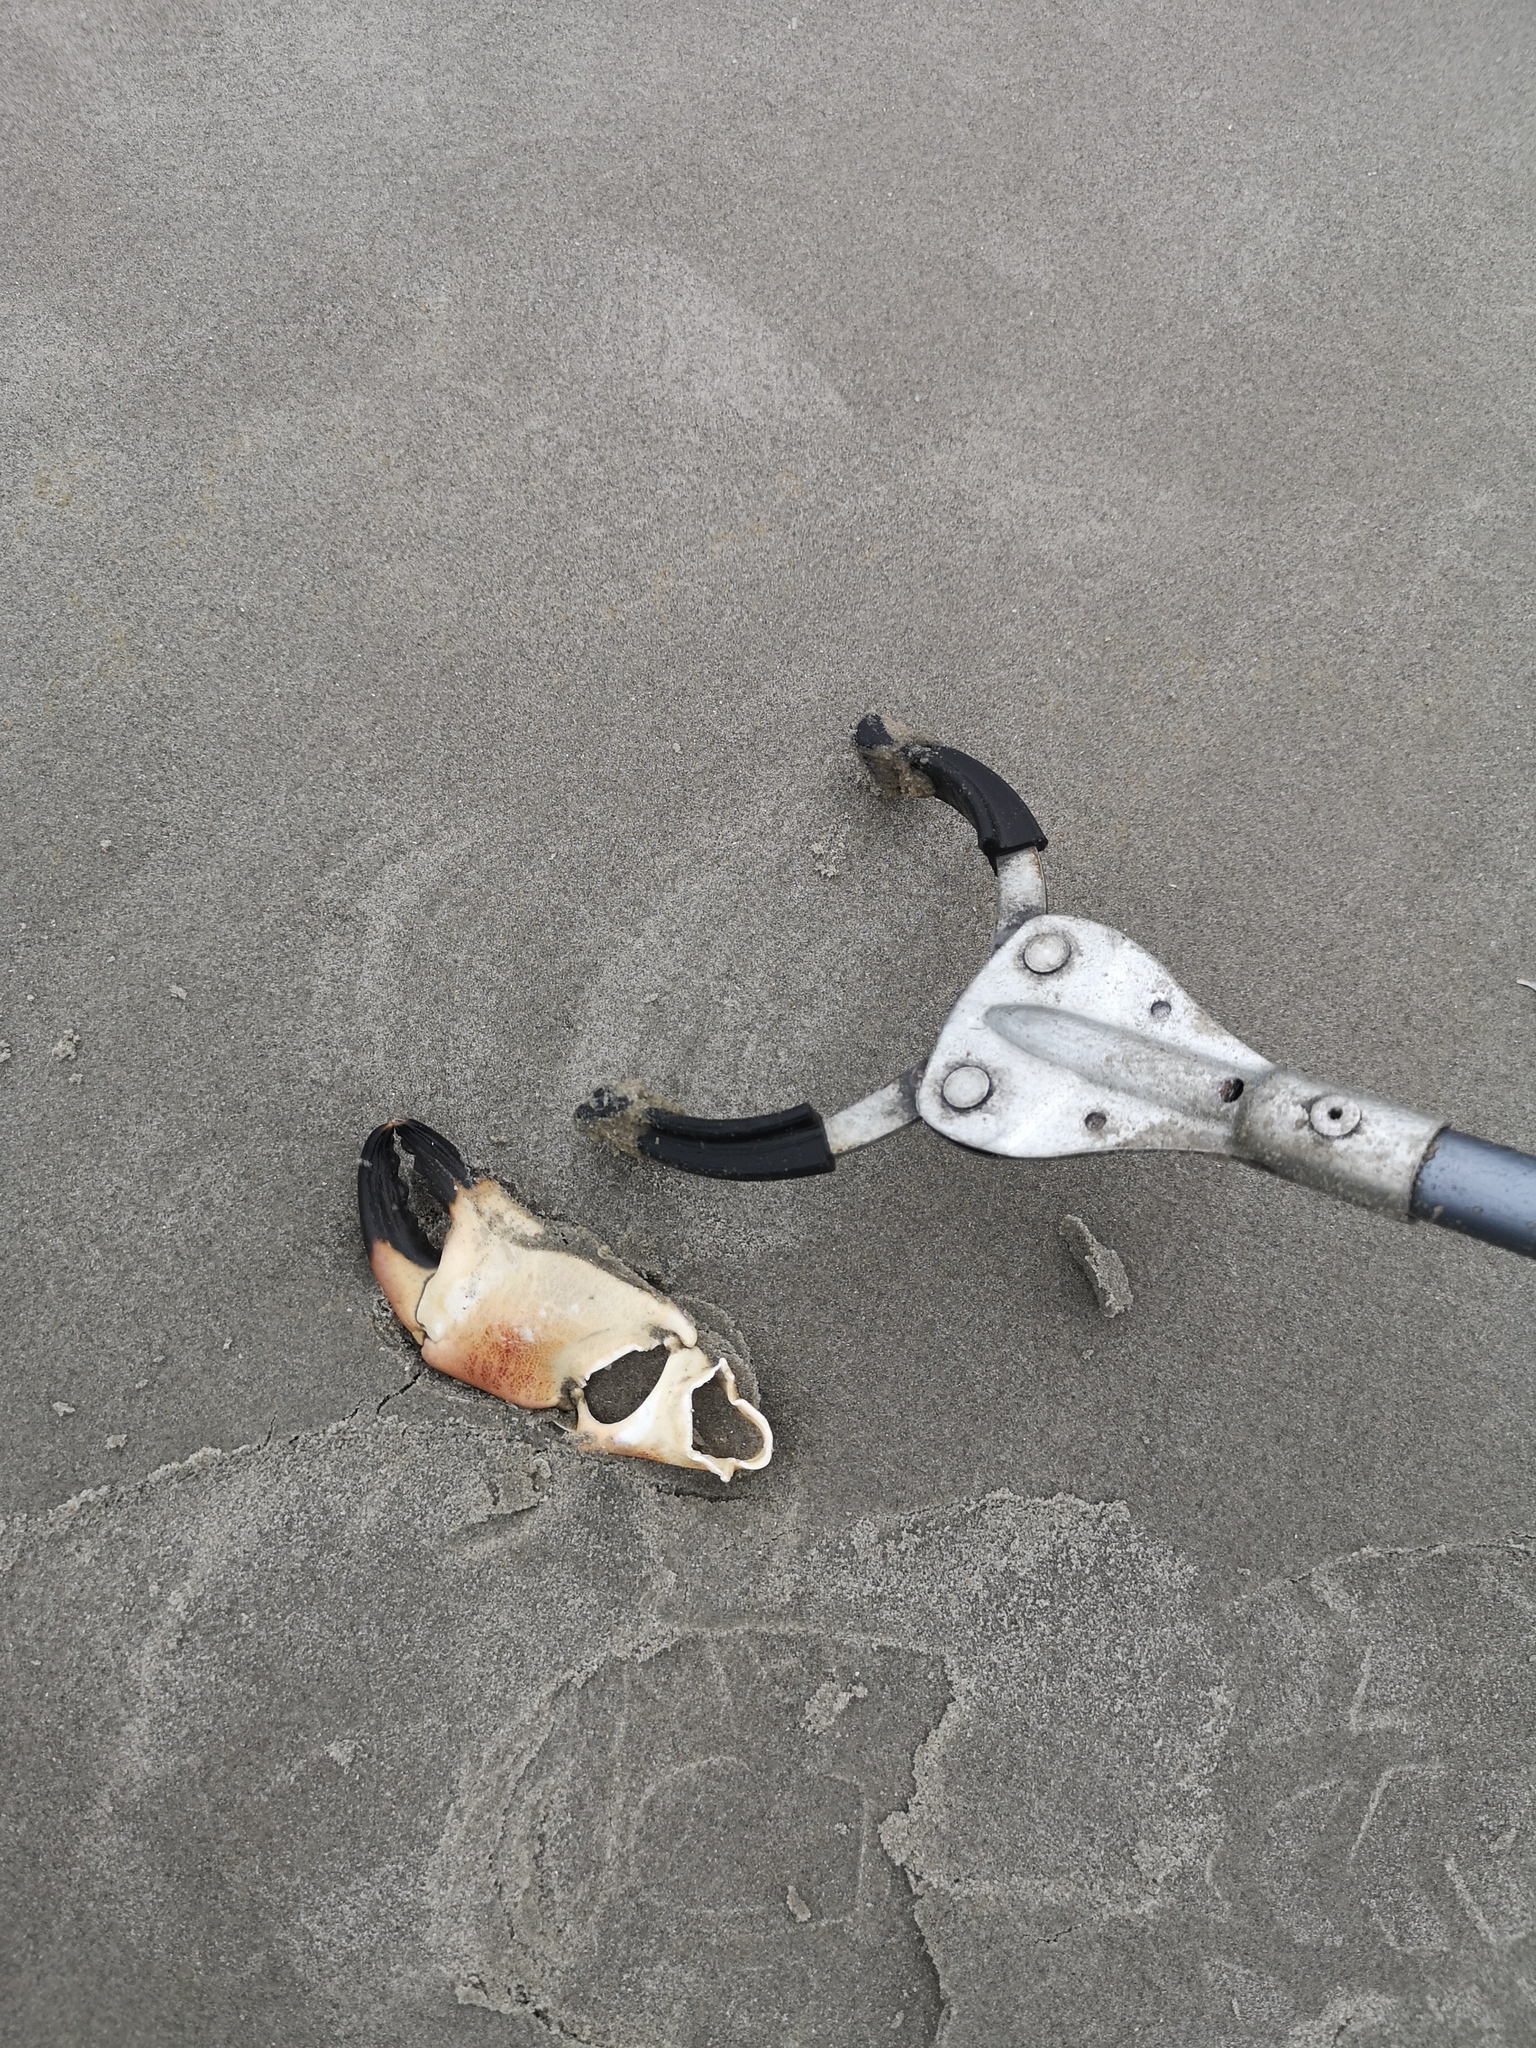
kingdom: Animalia
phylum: Arthropoda
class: Malacostraca
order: Decapoda
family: Cancridae
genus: Cancer
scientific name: Cancer pagurus
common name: Edible crab
